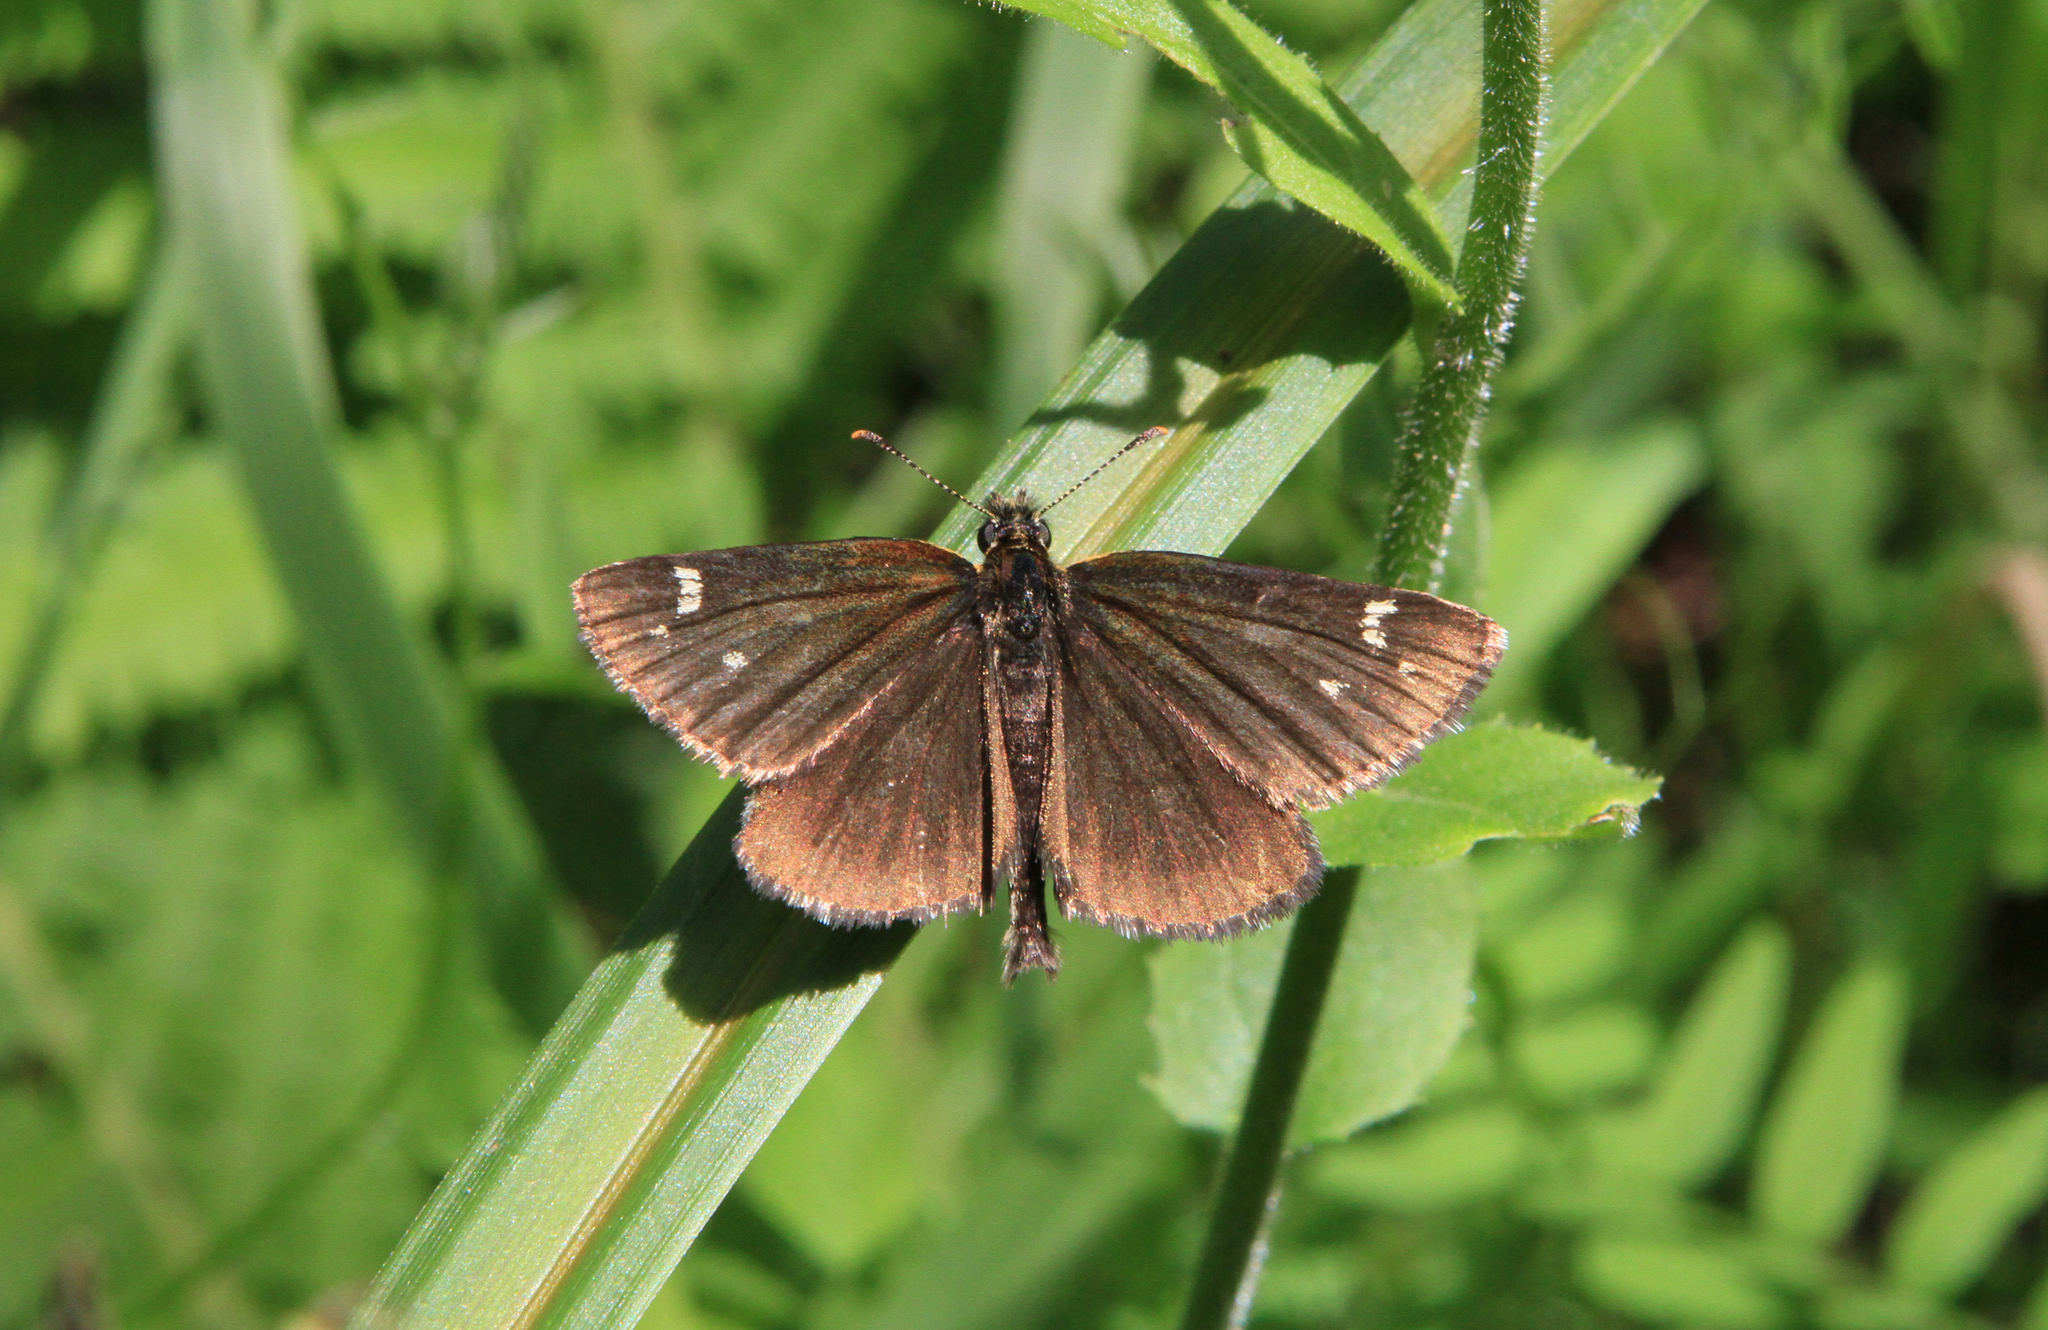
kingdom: Animalia
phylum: Arthropoda
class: Insecta
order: Lepidoptera
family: Hesperiidae
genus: Heteropterus
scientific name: Heteropterus morpheus
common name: Large chequered skipper
